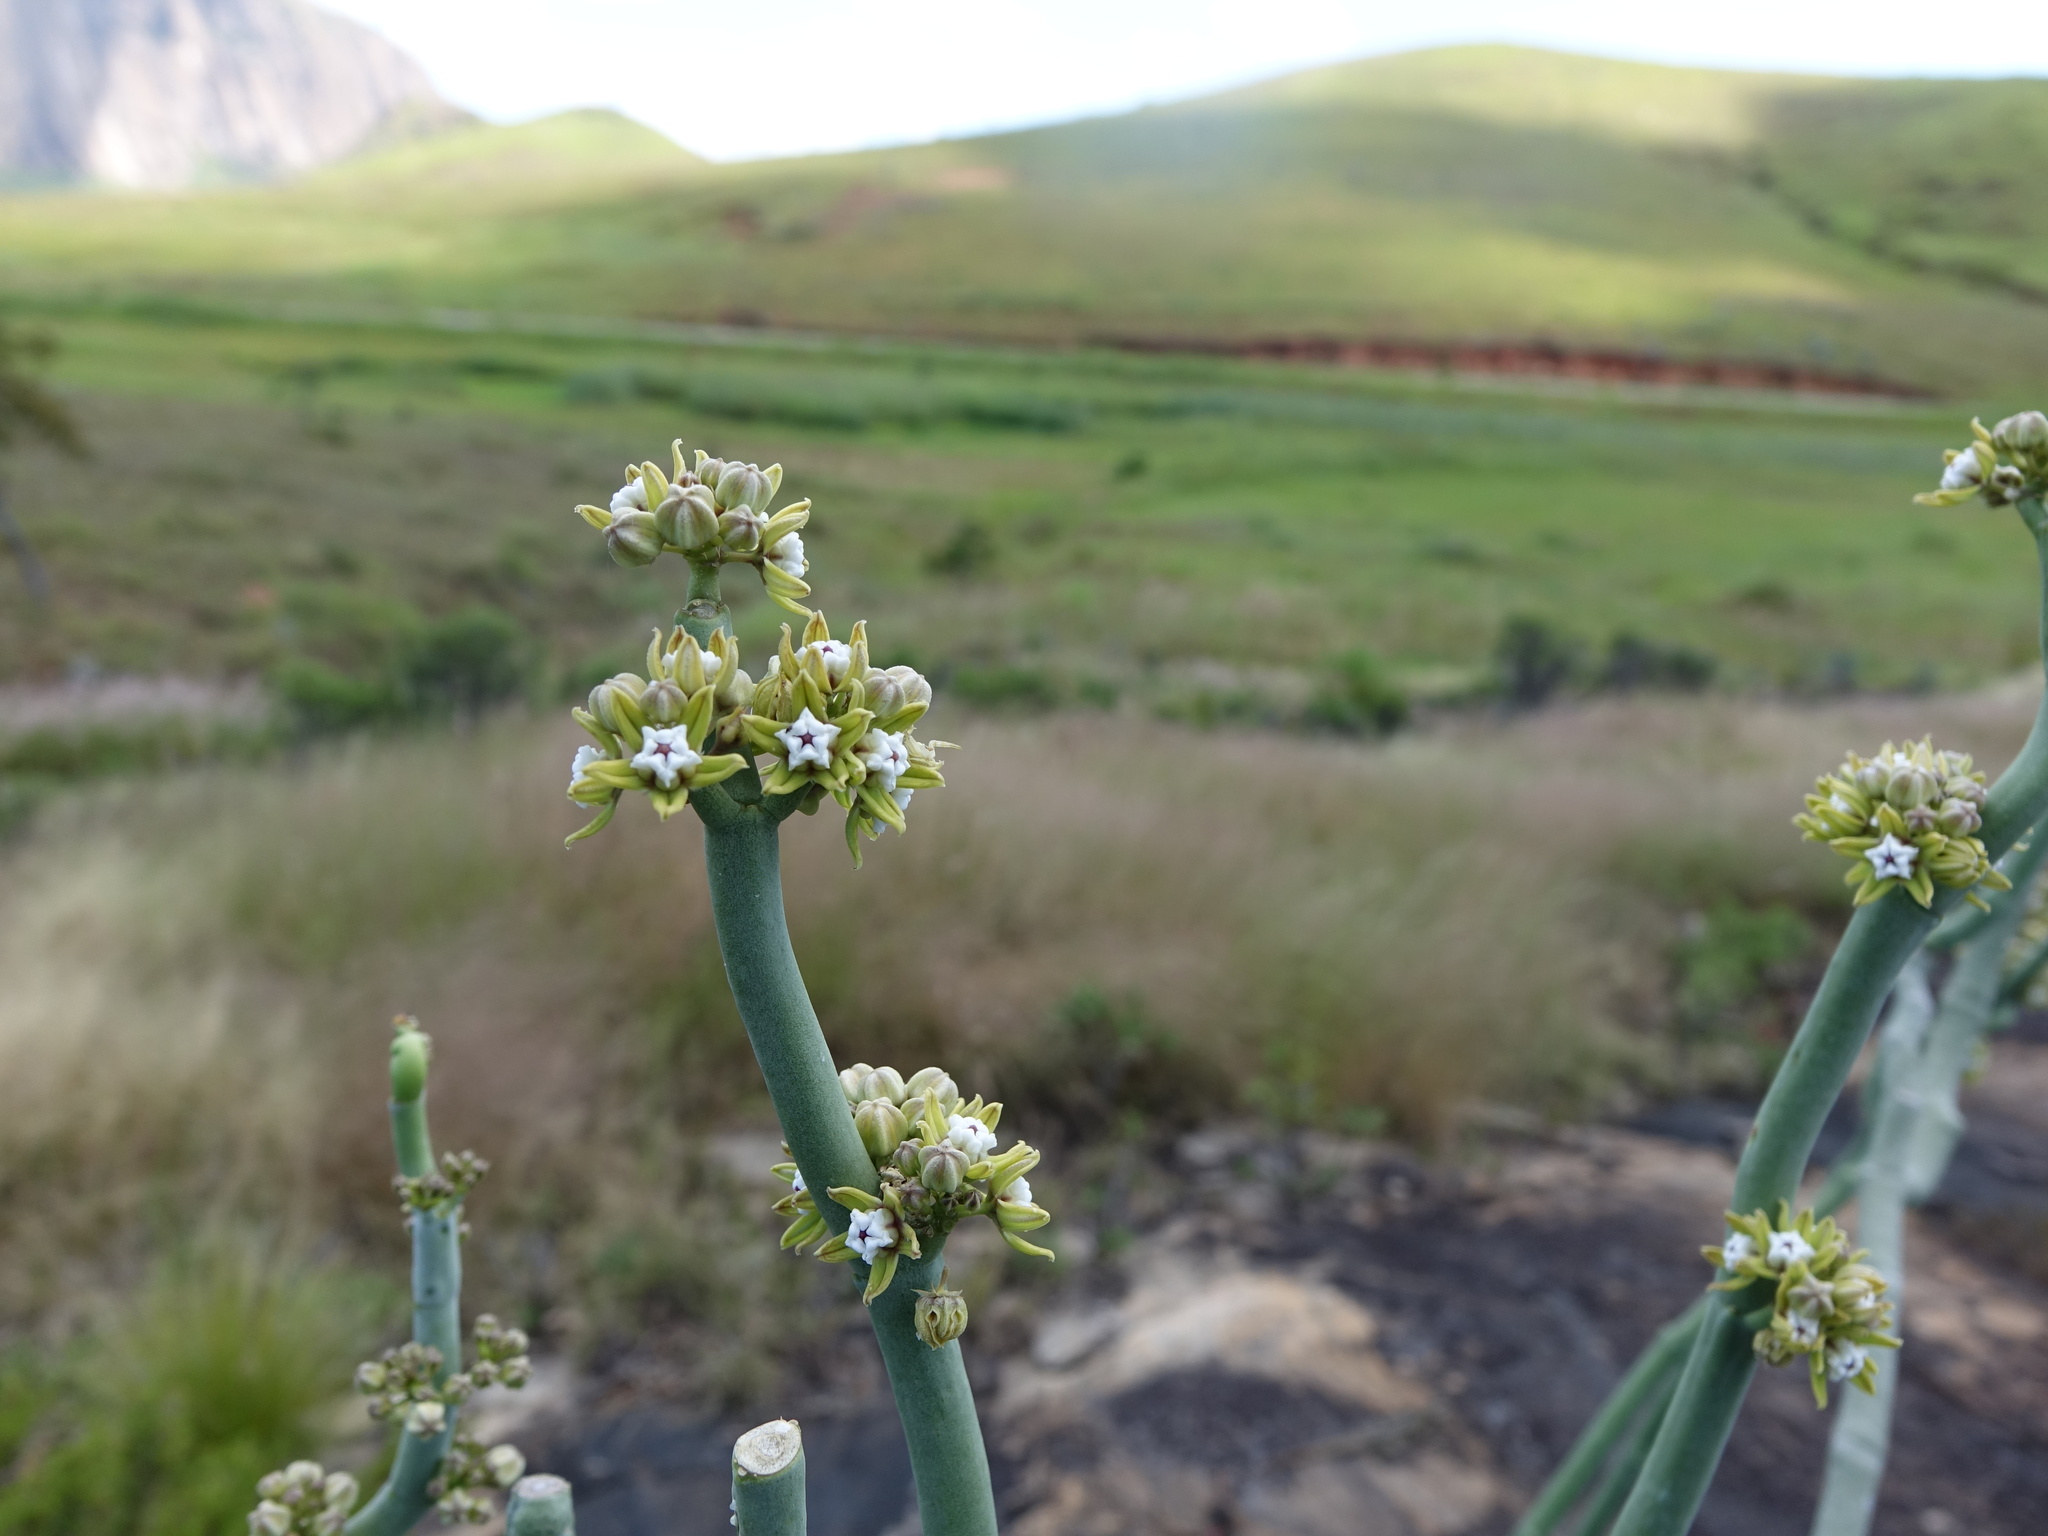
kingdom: Plantae
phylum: Tracheophyta
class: Magnoliopsida
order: Gentianales
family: Apocynaceae
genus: Cynanchum
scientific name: Cynanchum perrieri
